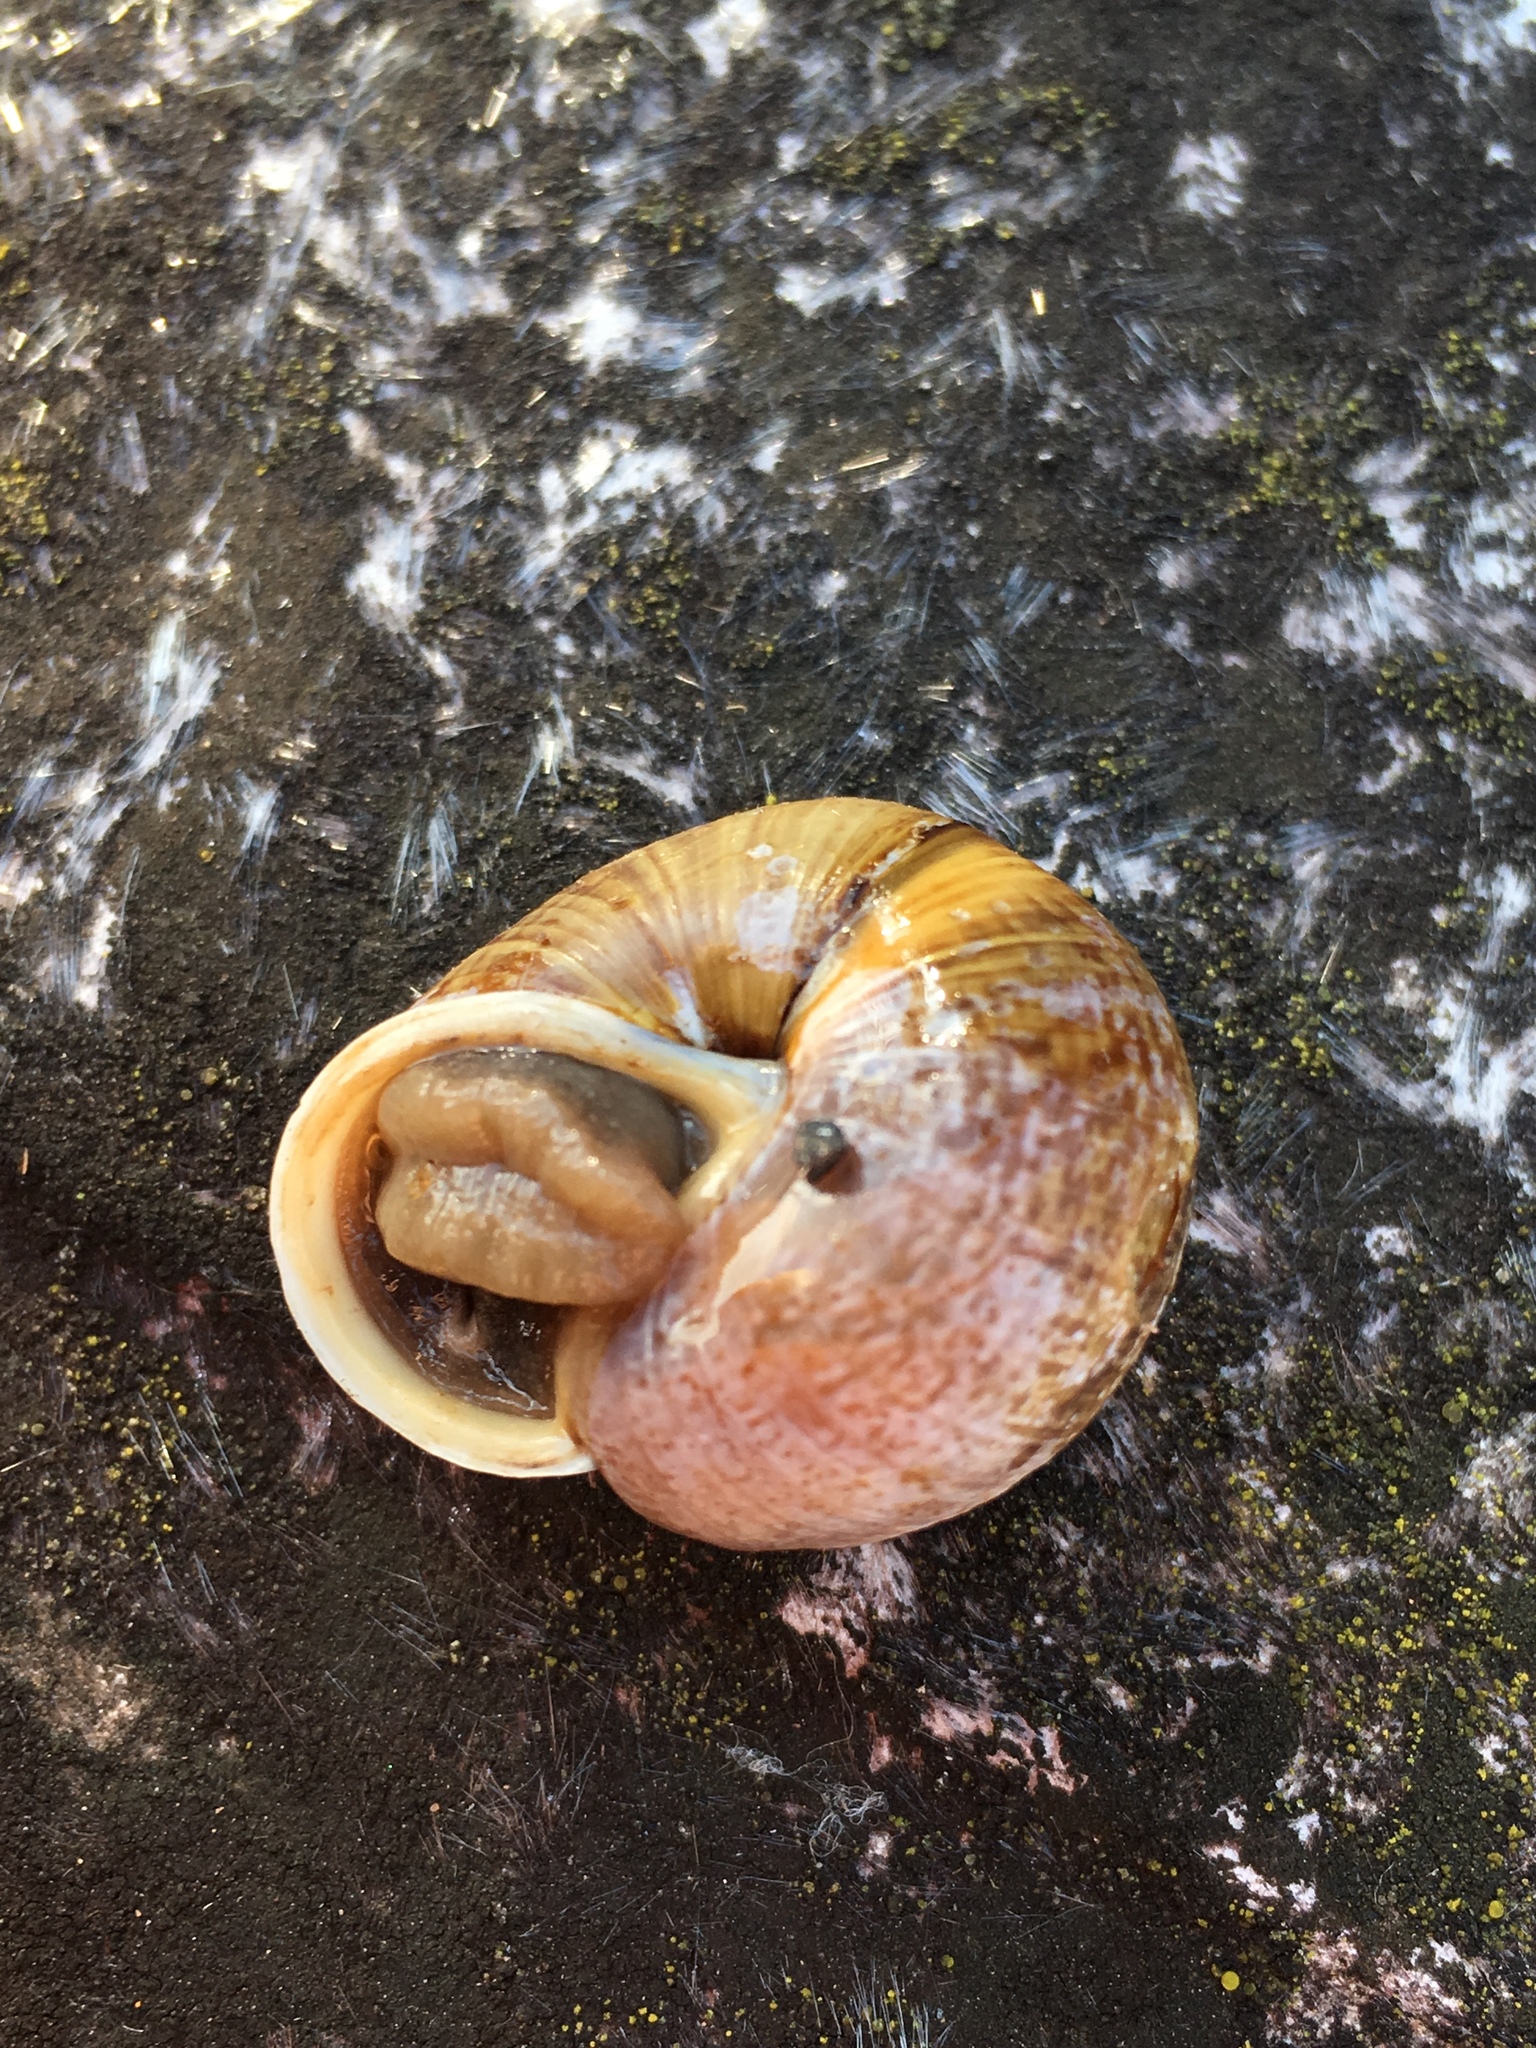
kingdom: Animalia
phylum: Mollusca
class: Gastropoda
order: Stylommatophora
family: Helicidae
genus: Arianta
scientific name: Arianta arbustorum
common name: Copse snail
